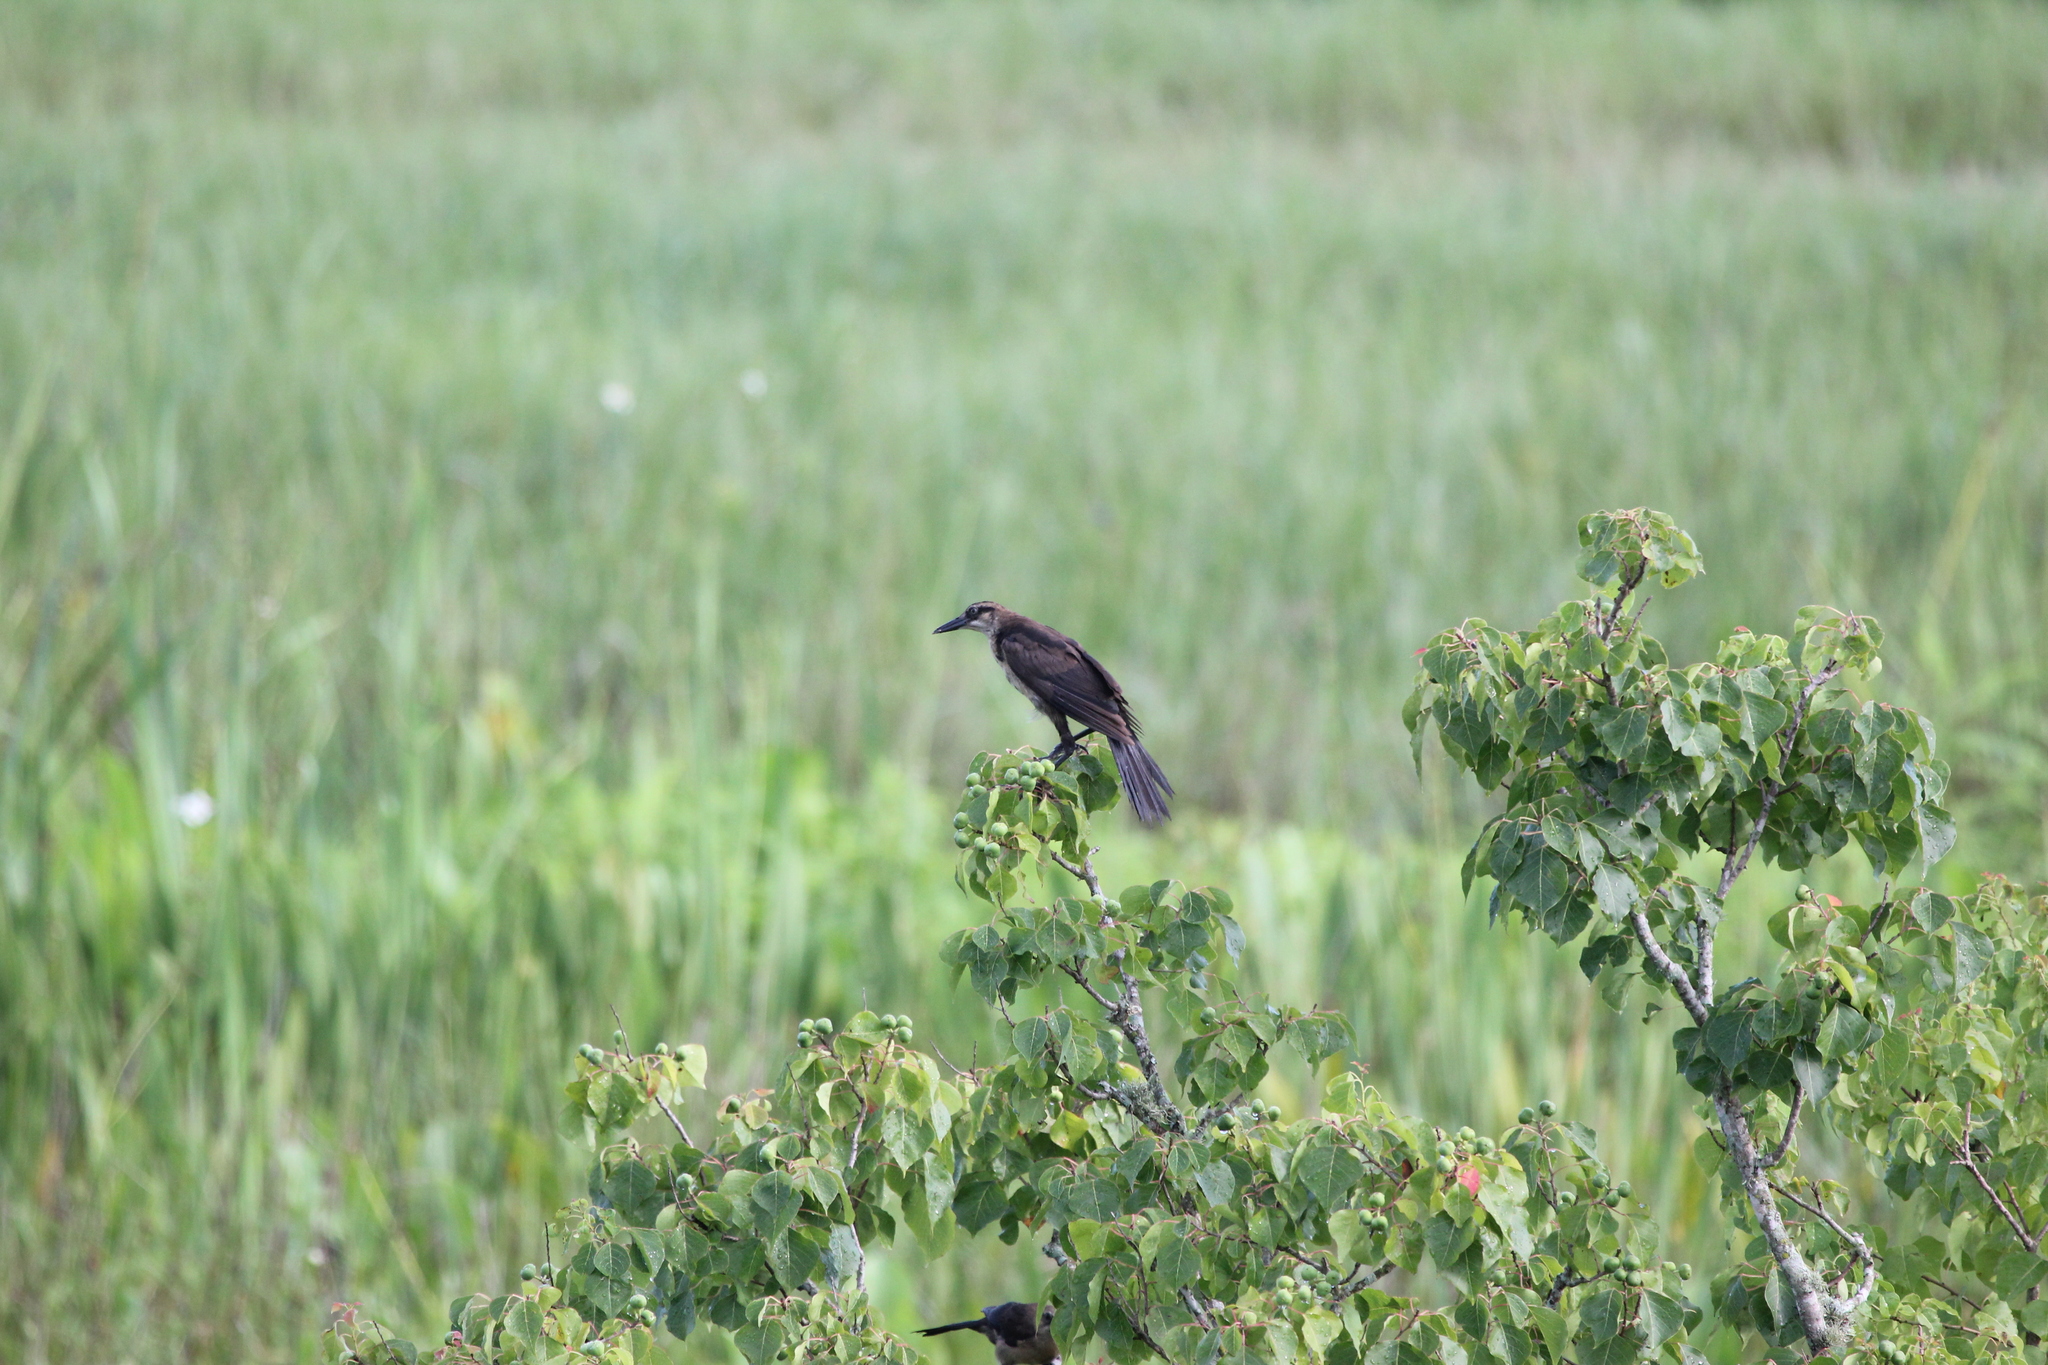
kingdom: Animalia
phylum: Chordata
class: Aves
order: Passeriformes
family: Icteridae
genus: Quiscalus
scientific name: Quiscalus major
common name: Boat-tailed grackle
